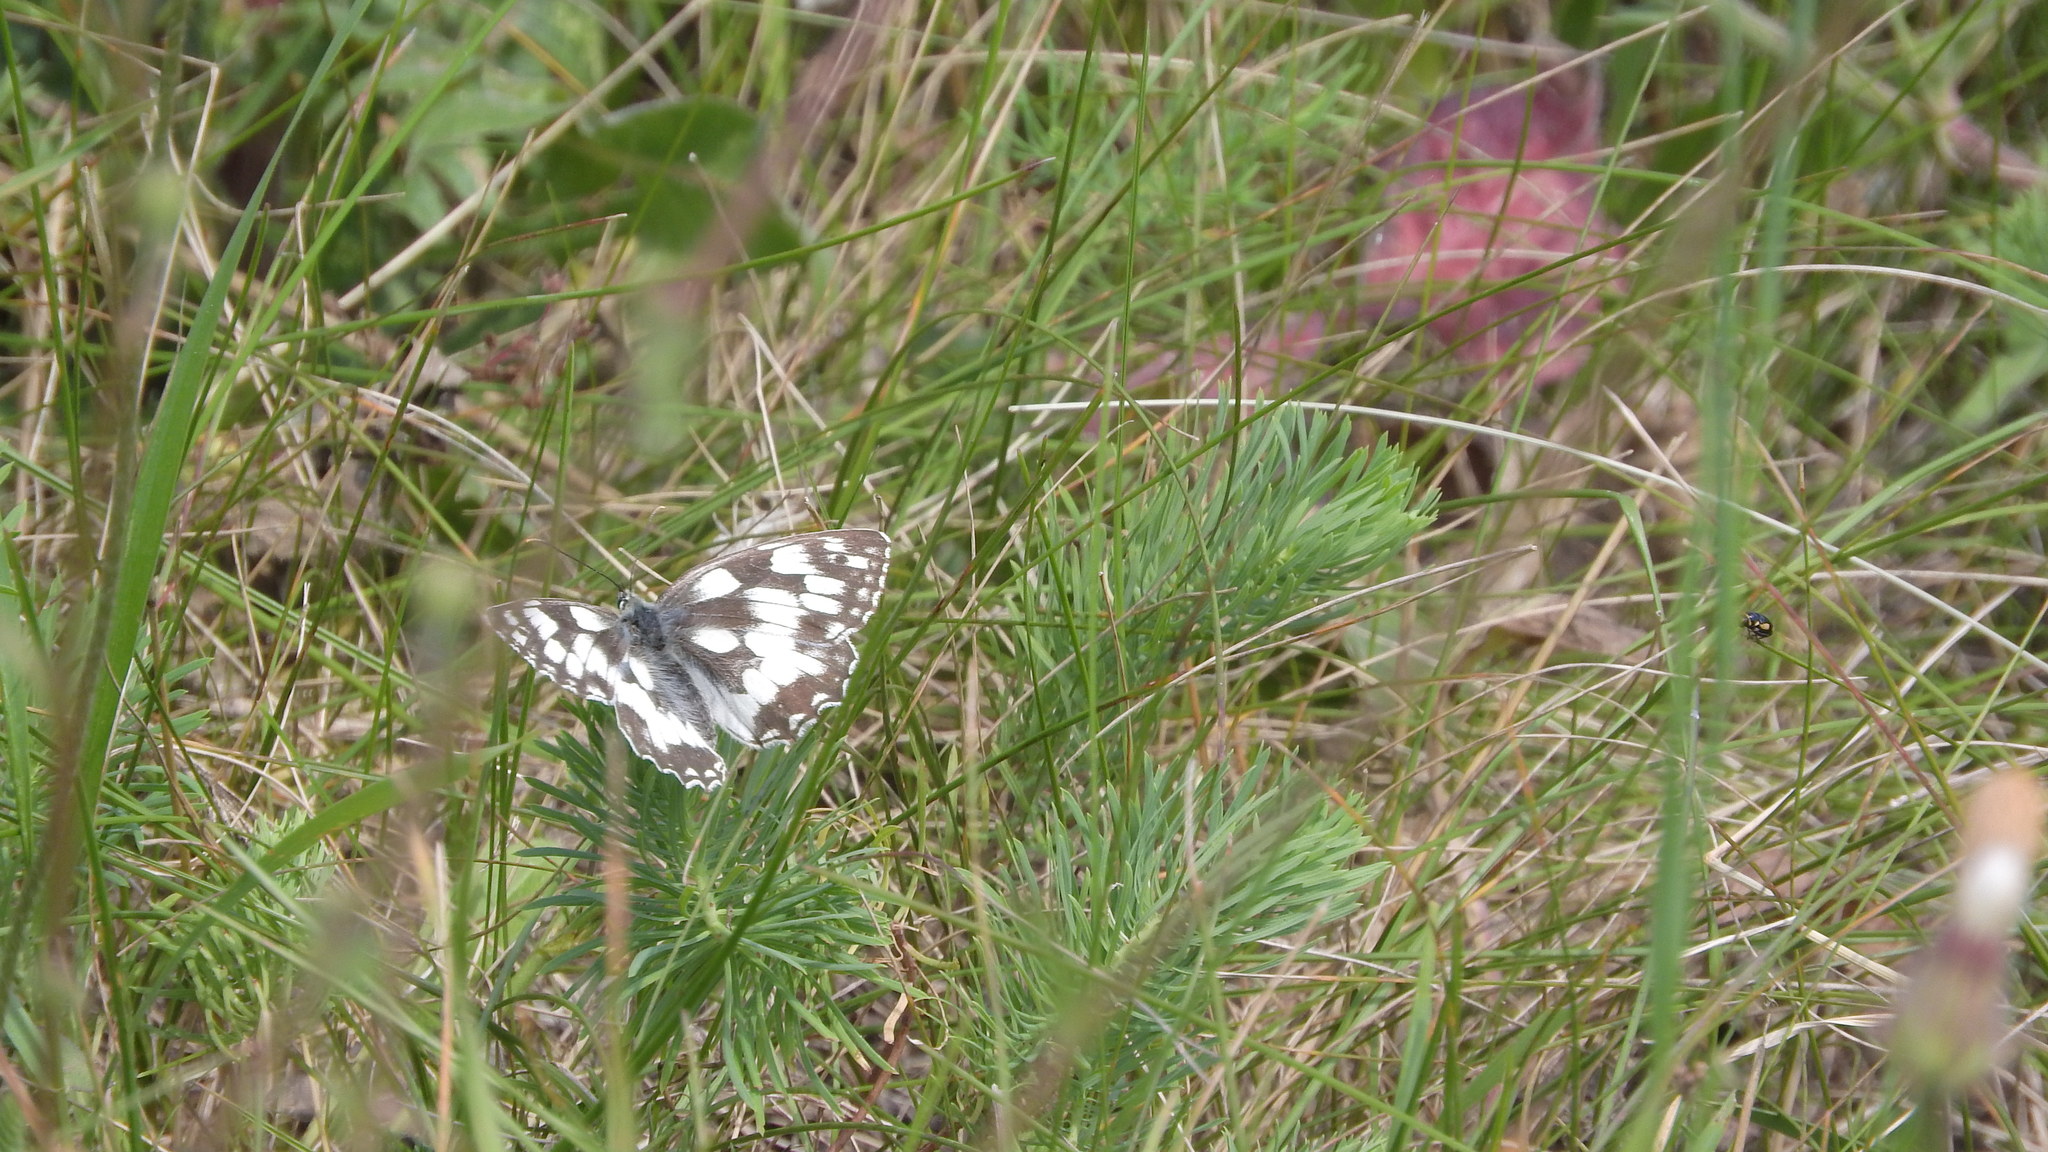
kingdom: Animalia
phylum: Arthropoda
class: Insecta
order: Lepidoptera
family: Nymphalidae
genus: Melanargia
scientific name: Melanargia galathea
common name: Marbled white
